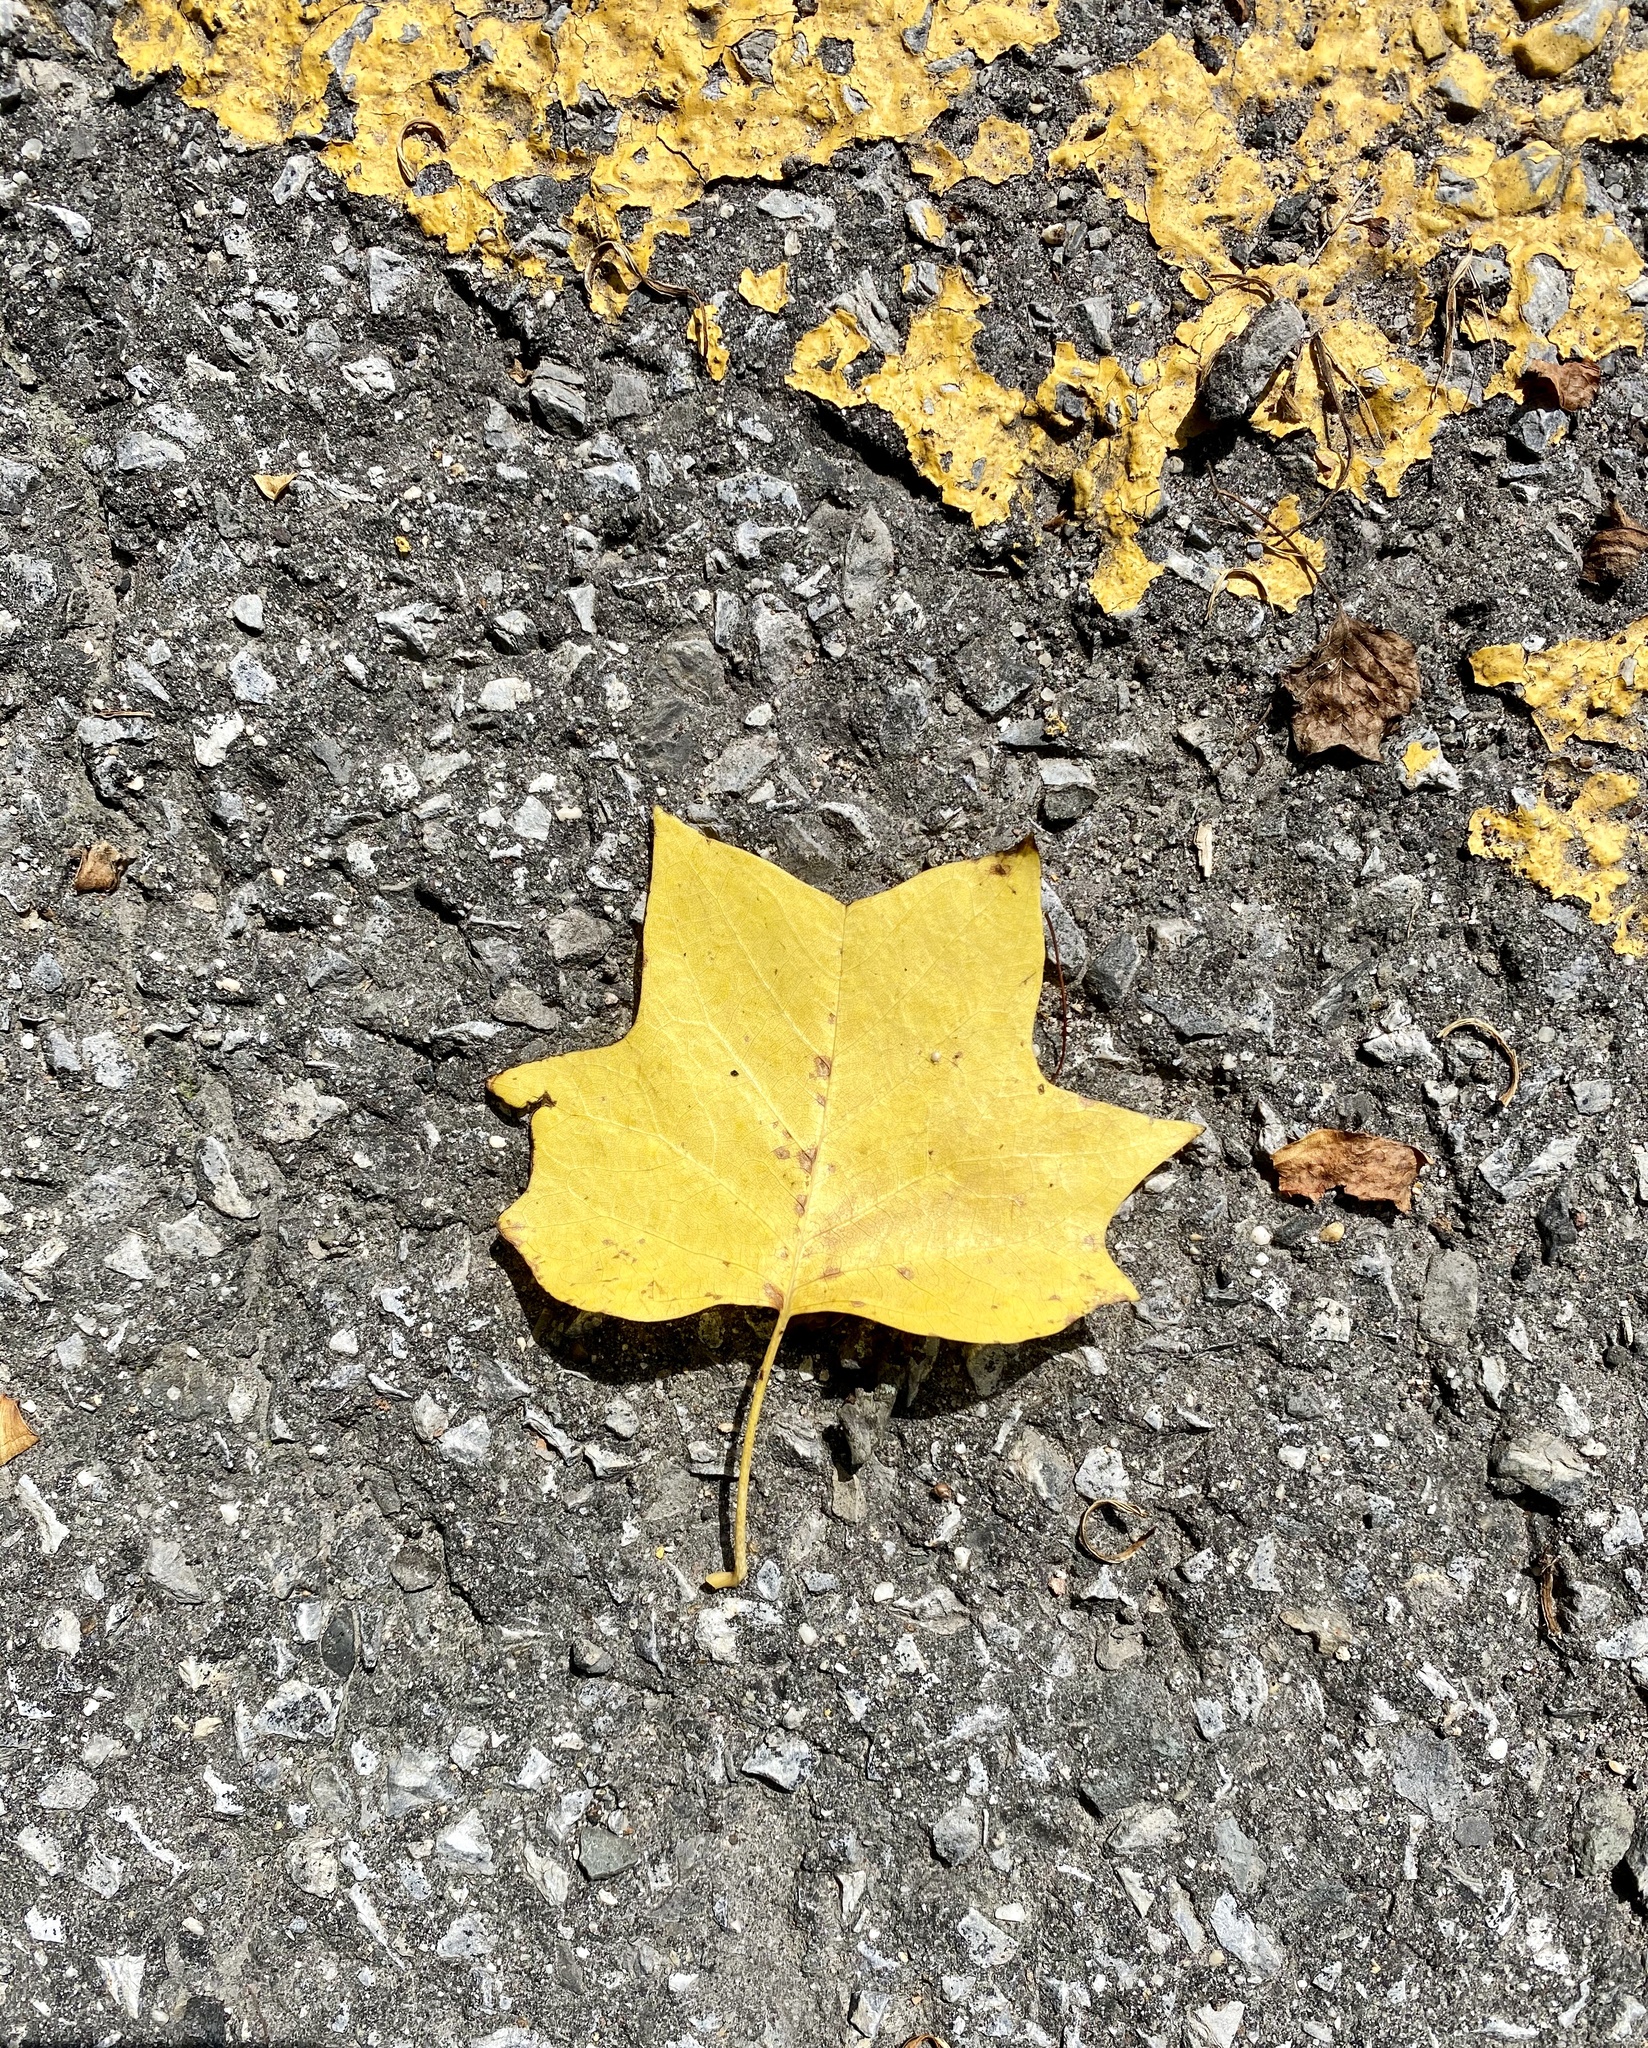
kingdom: Plantae
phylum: Tracheophyta
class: Magnoliopsida
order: Magnoliales
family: Magnoliaceae
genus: Liriodendron
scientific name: Liriodendron tulipifera
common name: Tulip tree
